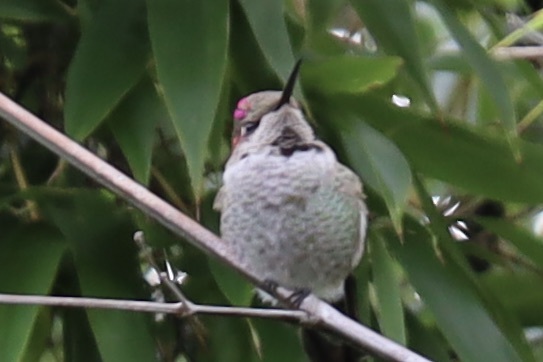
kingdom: Animalia
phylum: Chordata
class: Aves
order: Apodiformes
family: Trochilidae
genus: Calypte
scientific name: Calypte anna
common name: Anna's hummingbird
